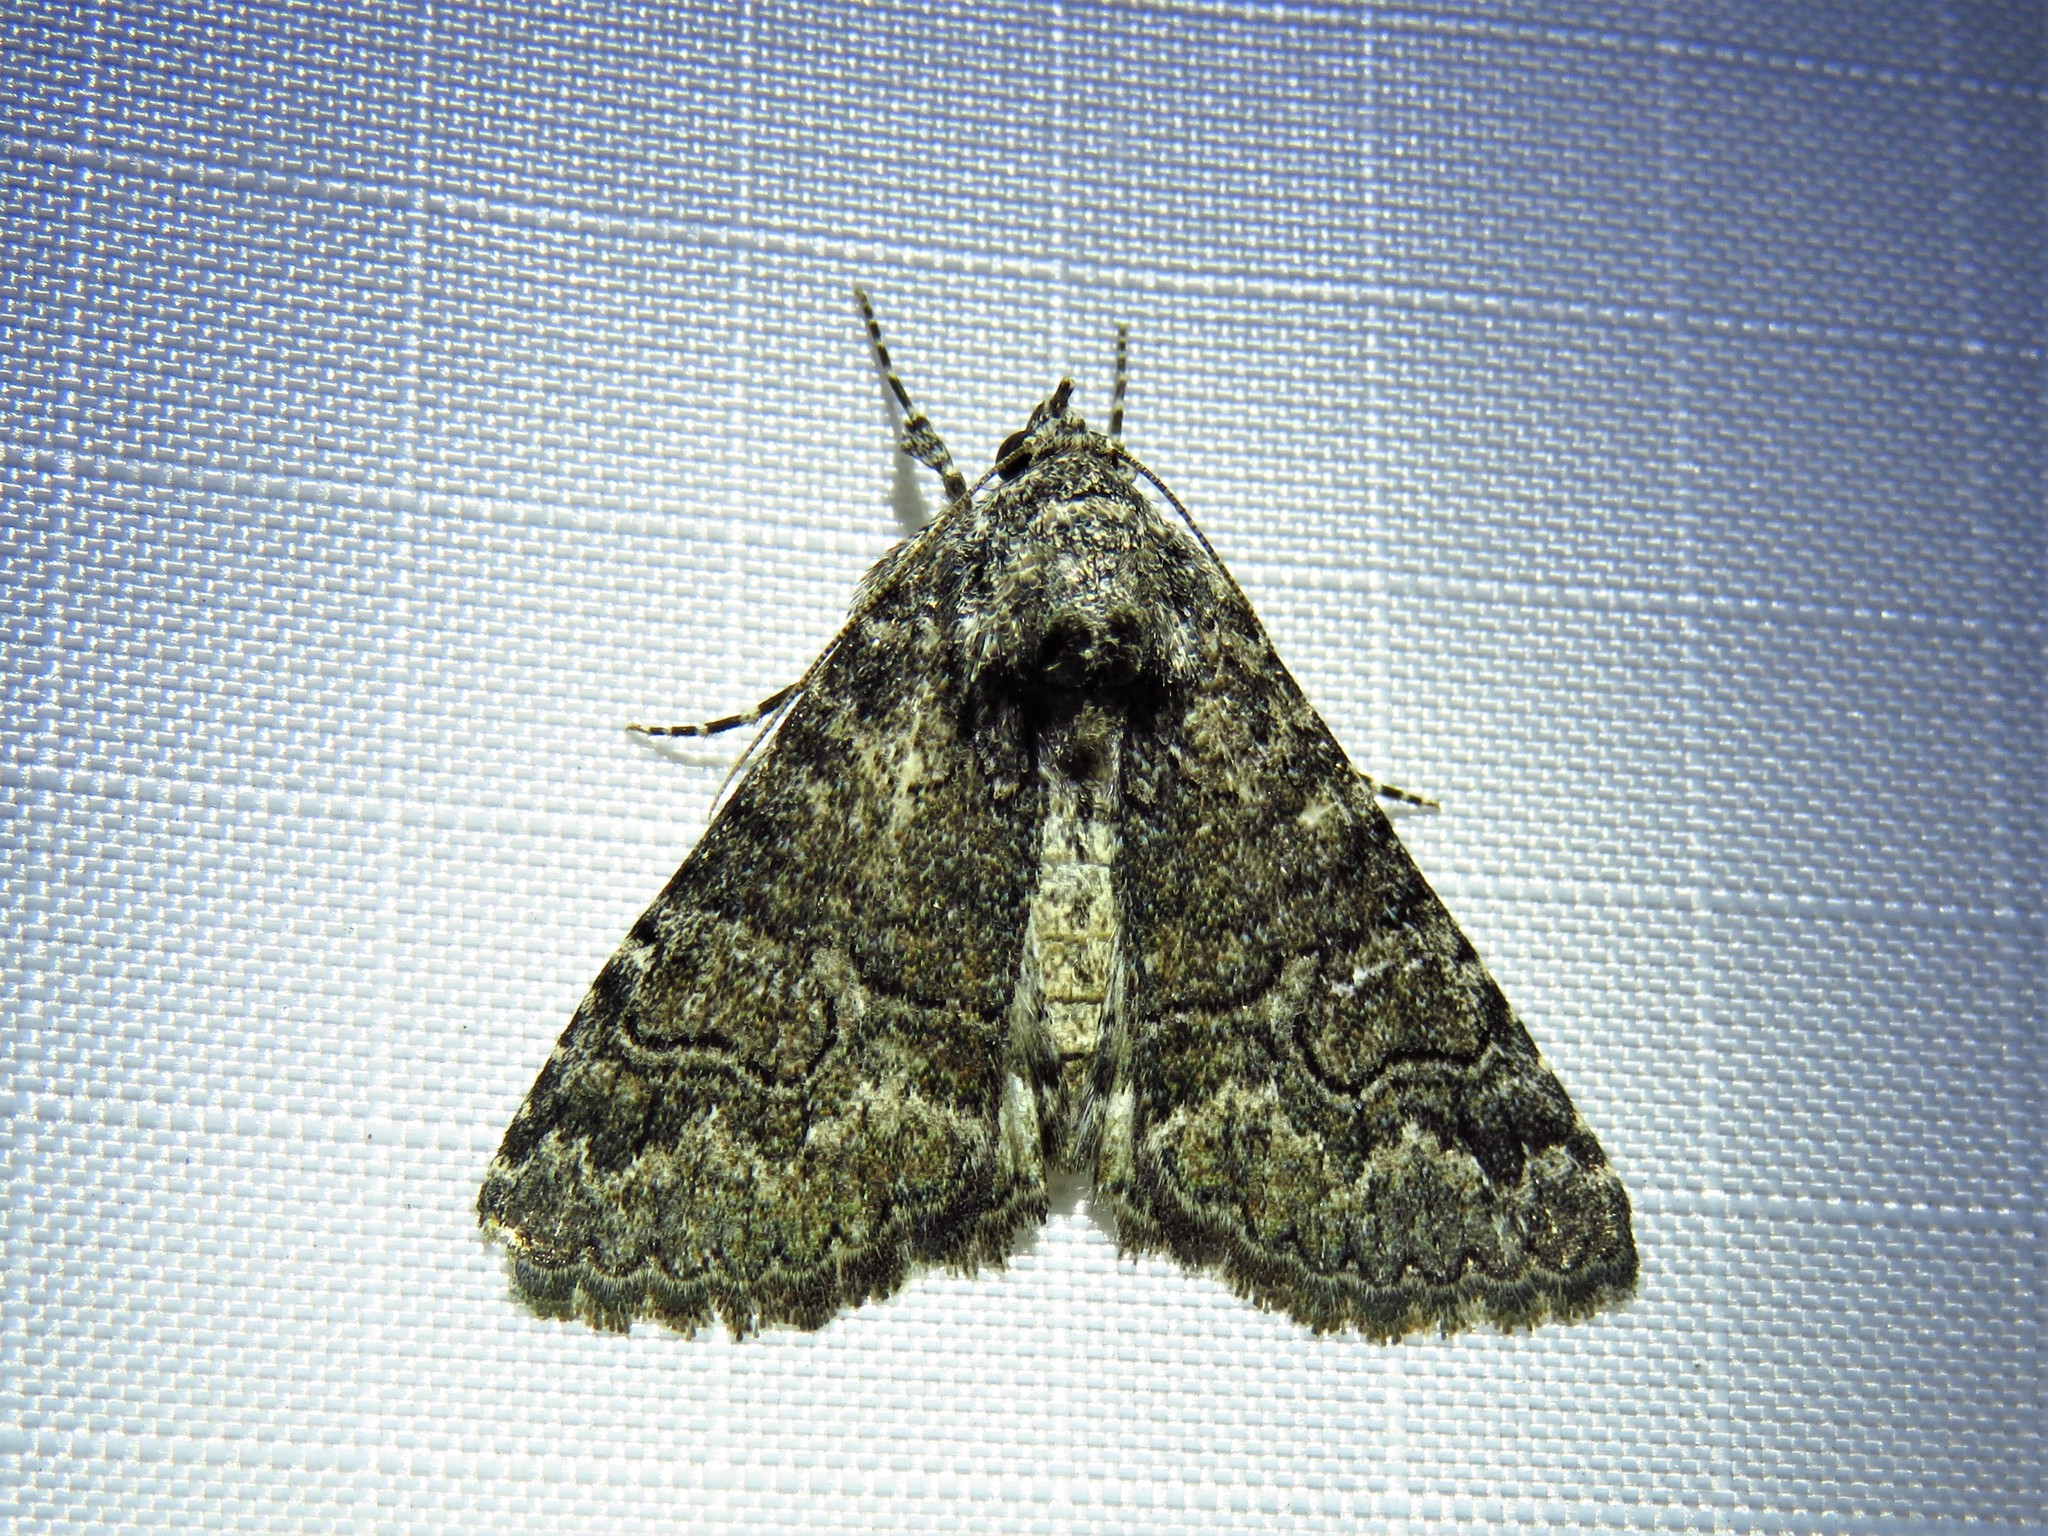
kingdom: Animalia
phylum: Arthropoda
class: Insecta
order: Lepidoptera
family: Erebidae
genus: Elousa
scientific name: Elousa mima
